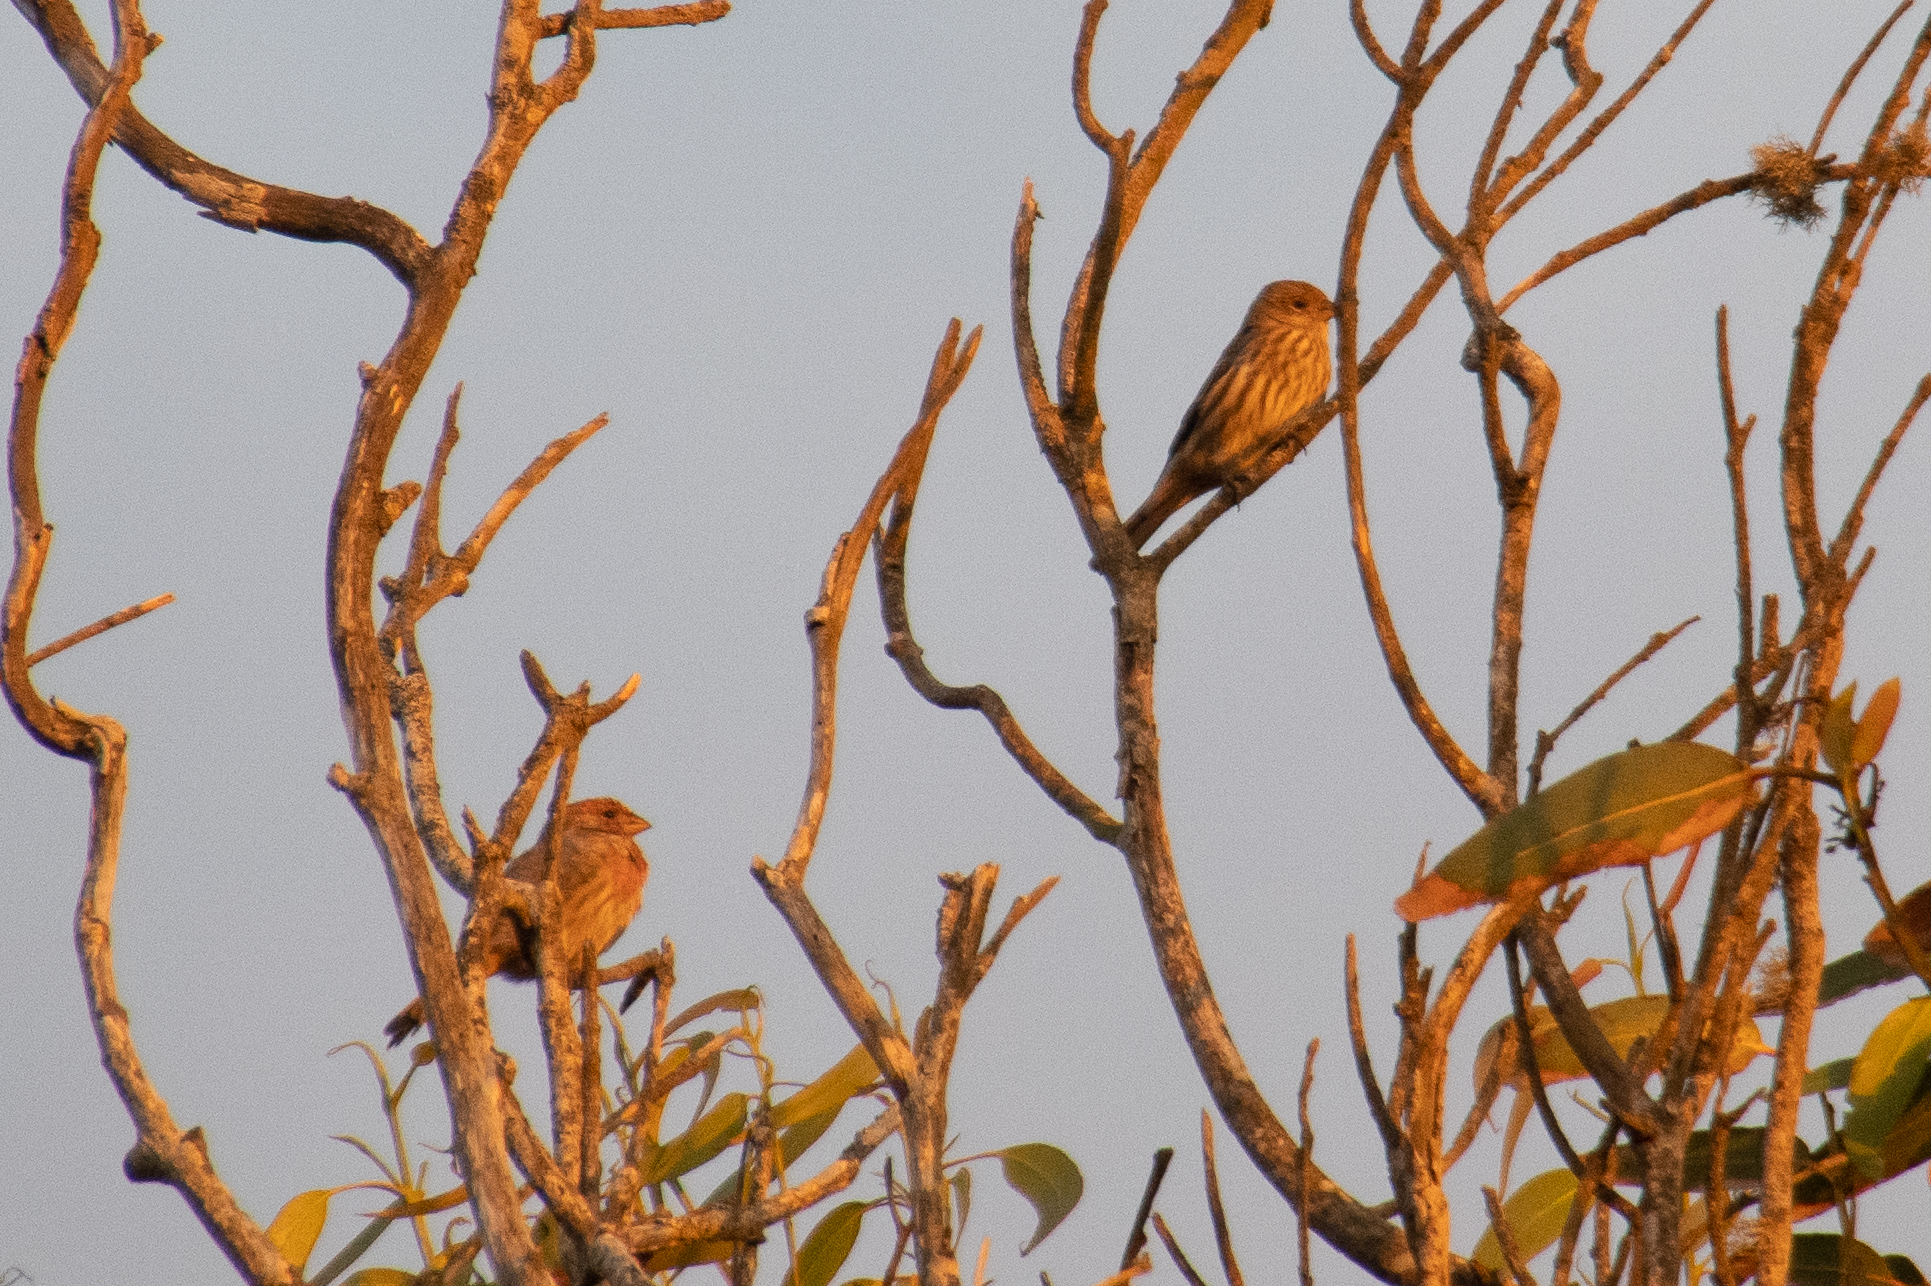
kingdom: Animalia
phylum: Chordata
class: Aves
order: Passeriformes
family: Fringillidae
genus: Haemorhous
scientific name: Haemorhous mexicanus
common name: House finch
